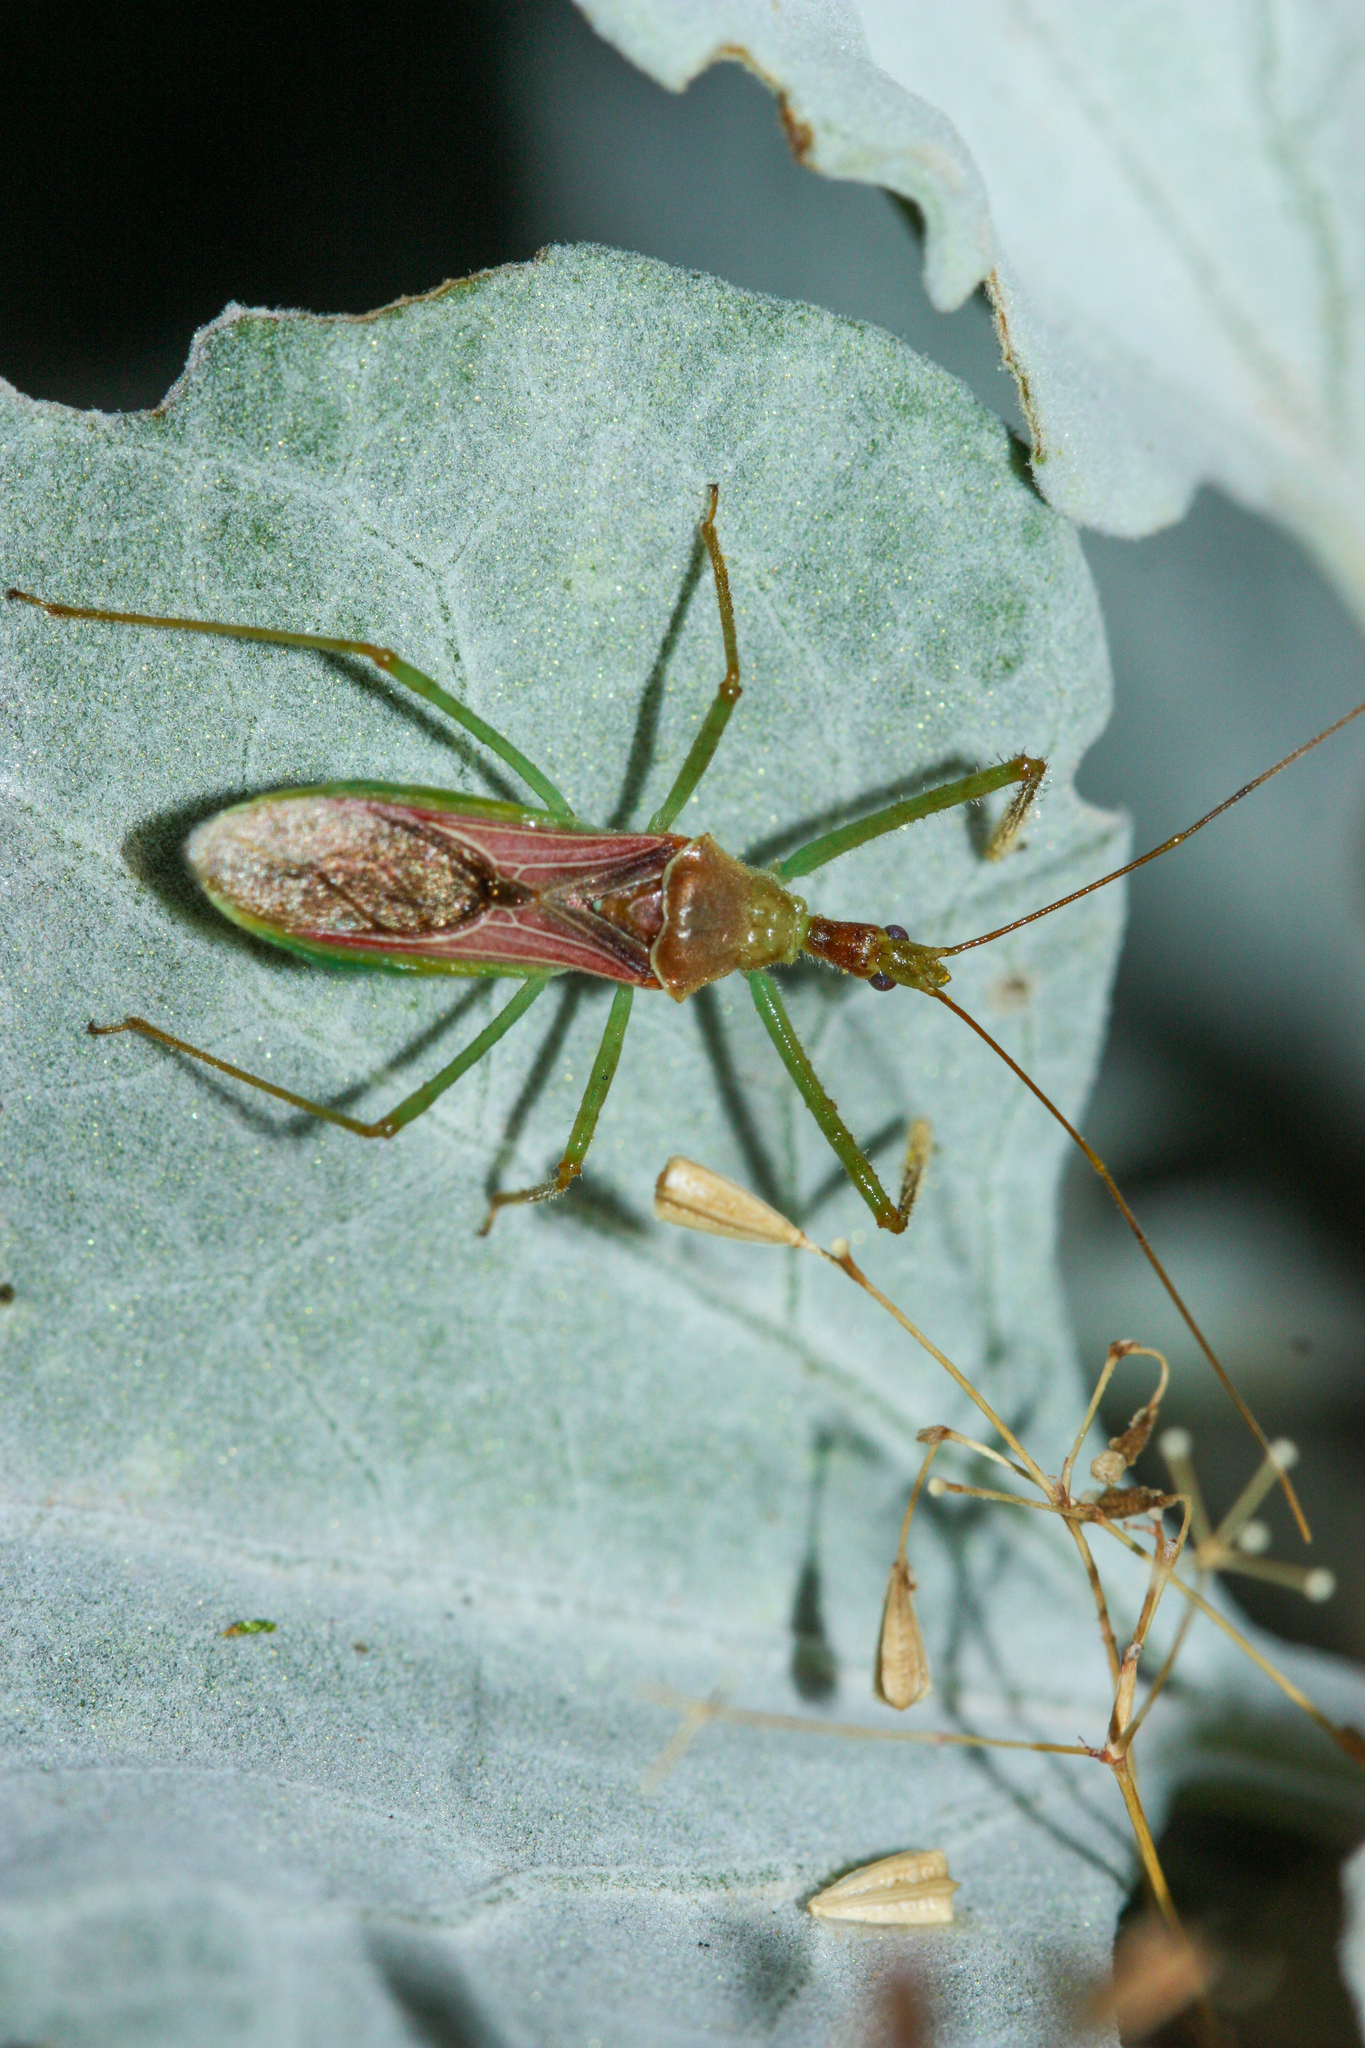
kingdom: Animalia
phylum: Arthropoda
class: Insecta
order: Hemiptera
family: Reduviidae
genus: Zelus
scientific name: Zelus renardii
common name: Assassin bug
